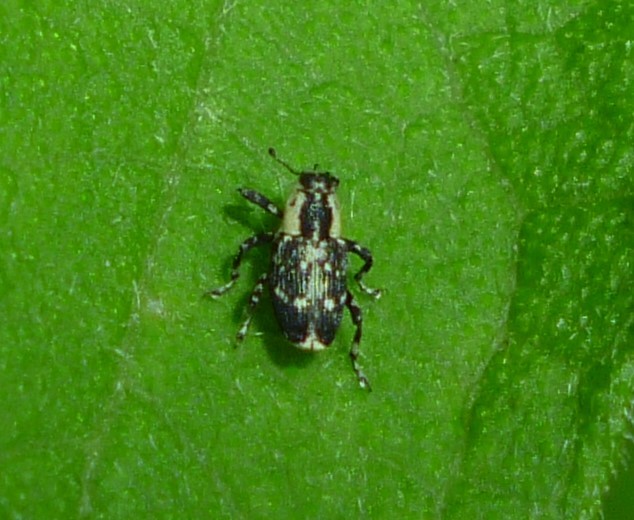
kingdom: Animalia
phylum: Arthropoda
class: Insecta
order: Coleoptera
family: Curculionidae
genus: Cylindrocopturus
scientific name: Cylindrocopturus quercus
